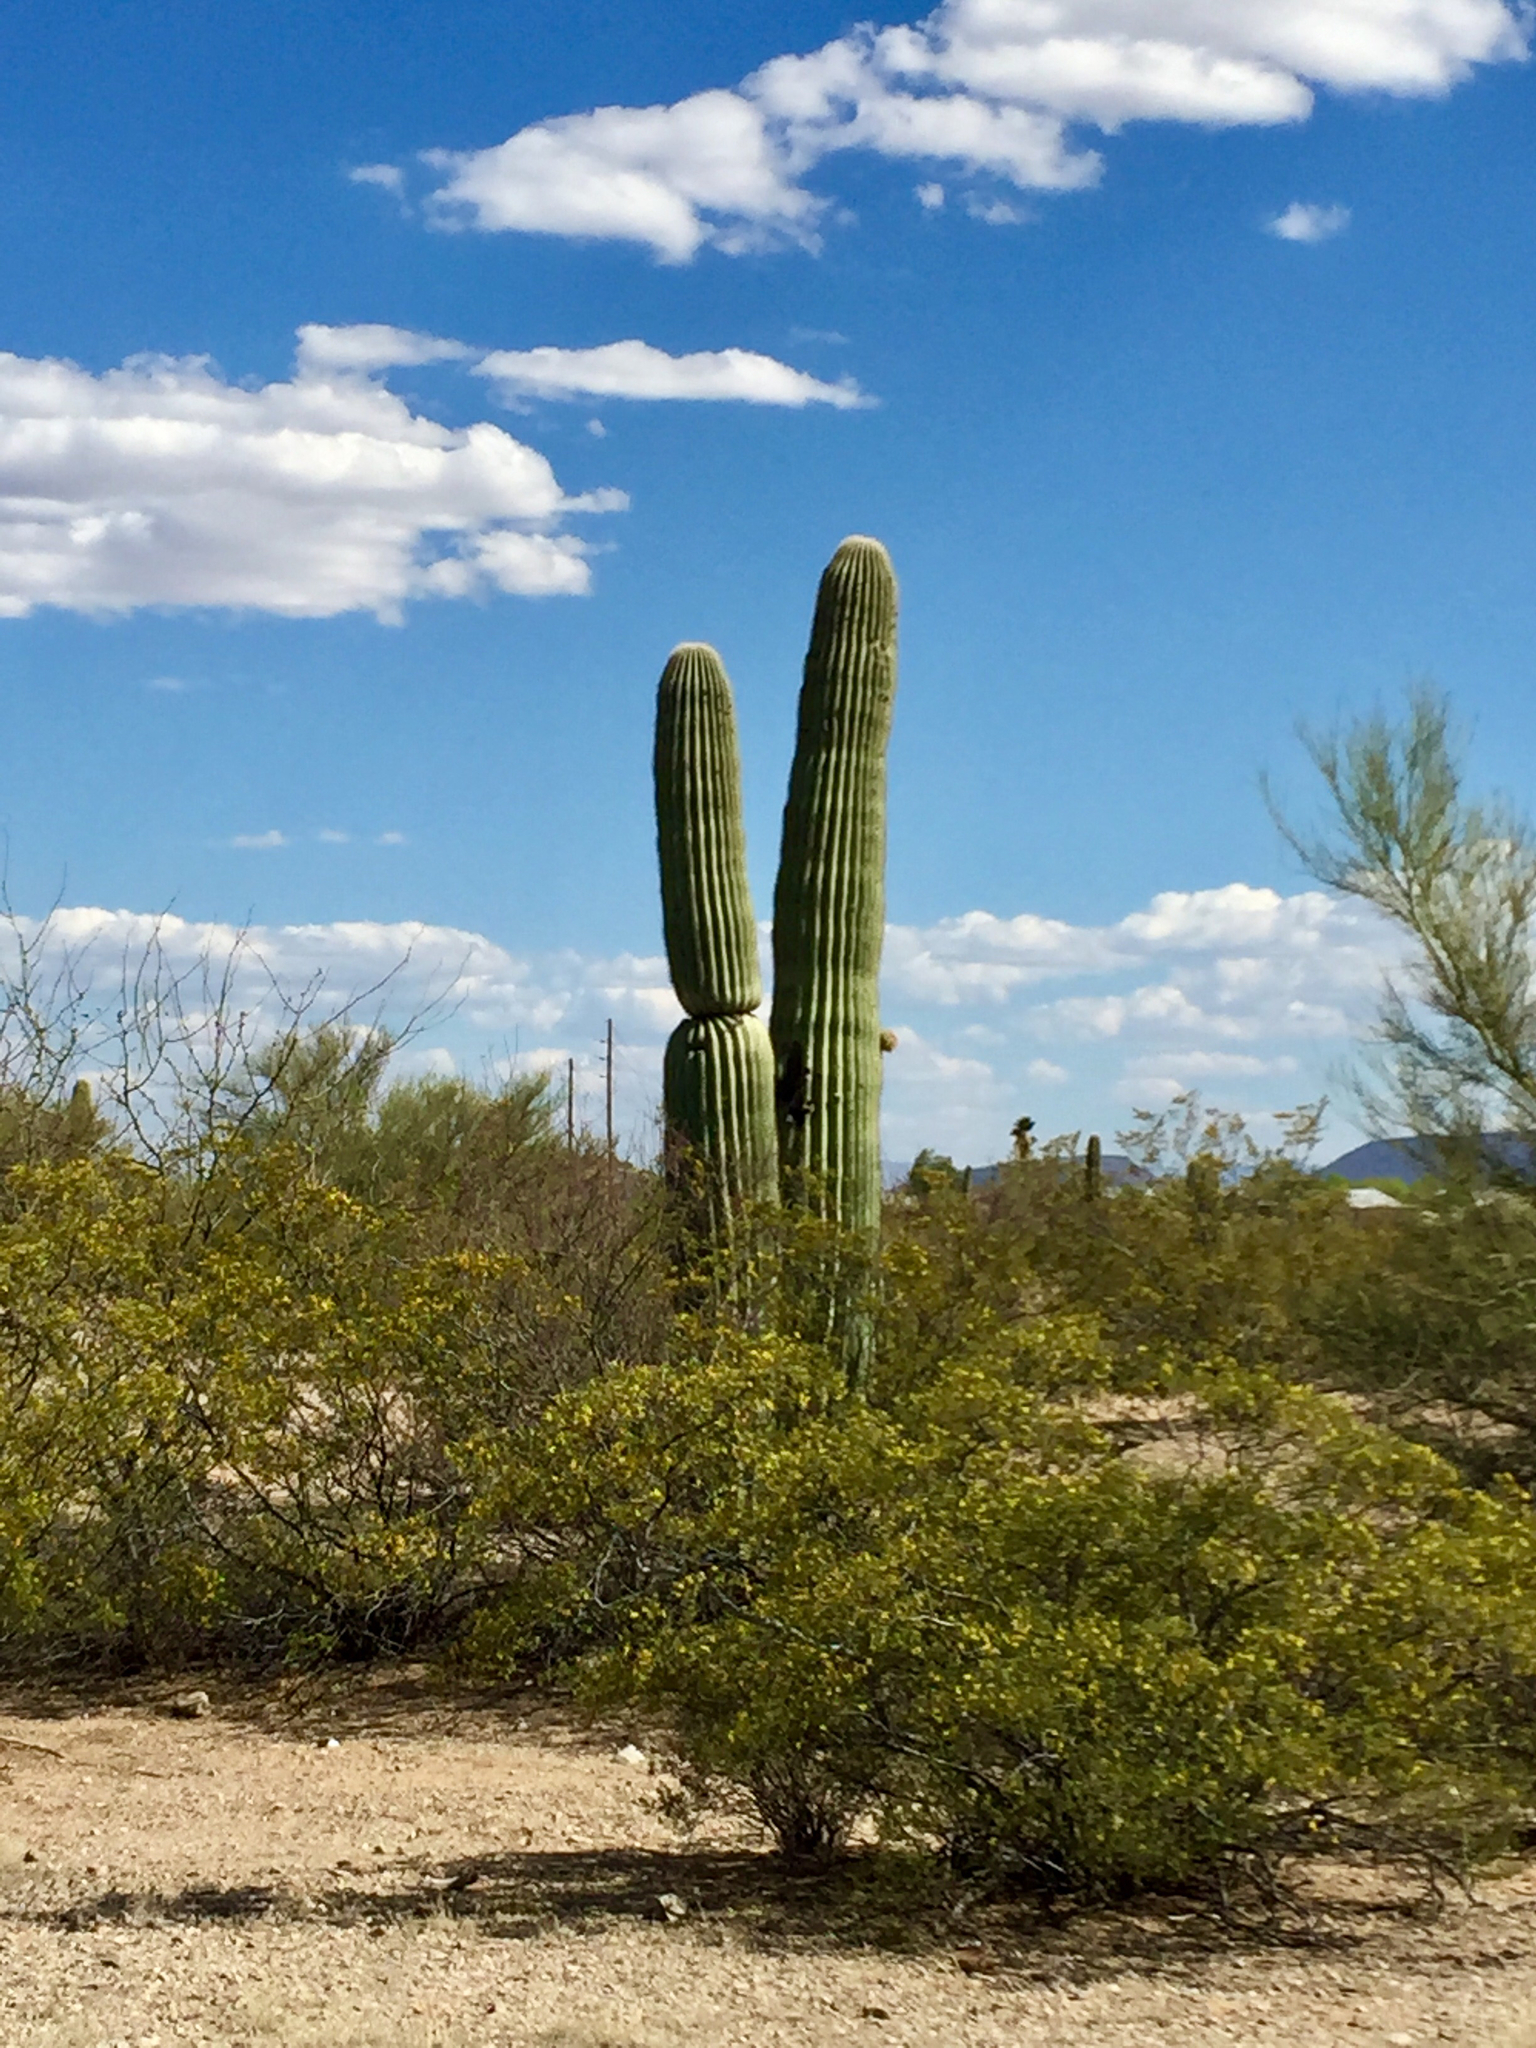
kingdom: Plantae
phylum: Tracheophyta
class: Magnoliopsida
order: Zygophyllales
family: Zygophyllaceae
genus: Larrea
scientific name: Larrea tridentata
